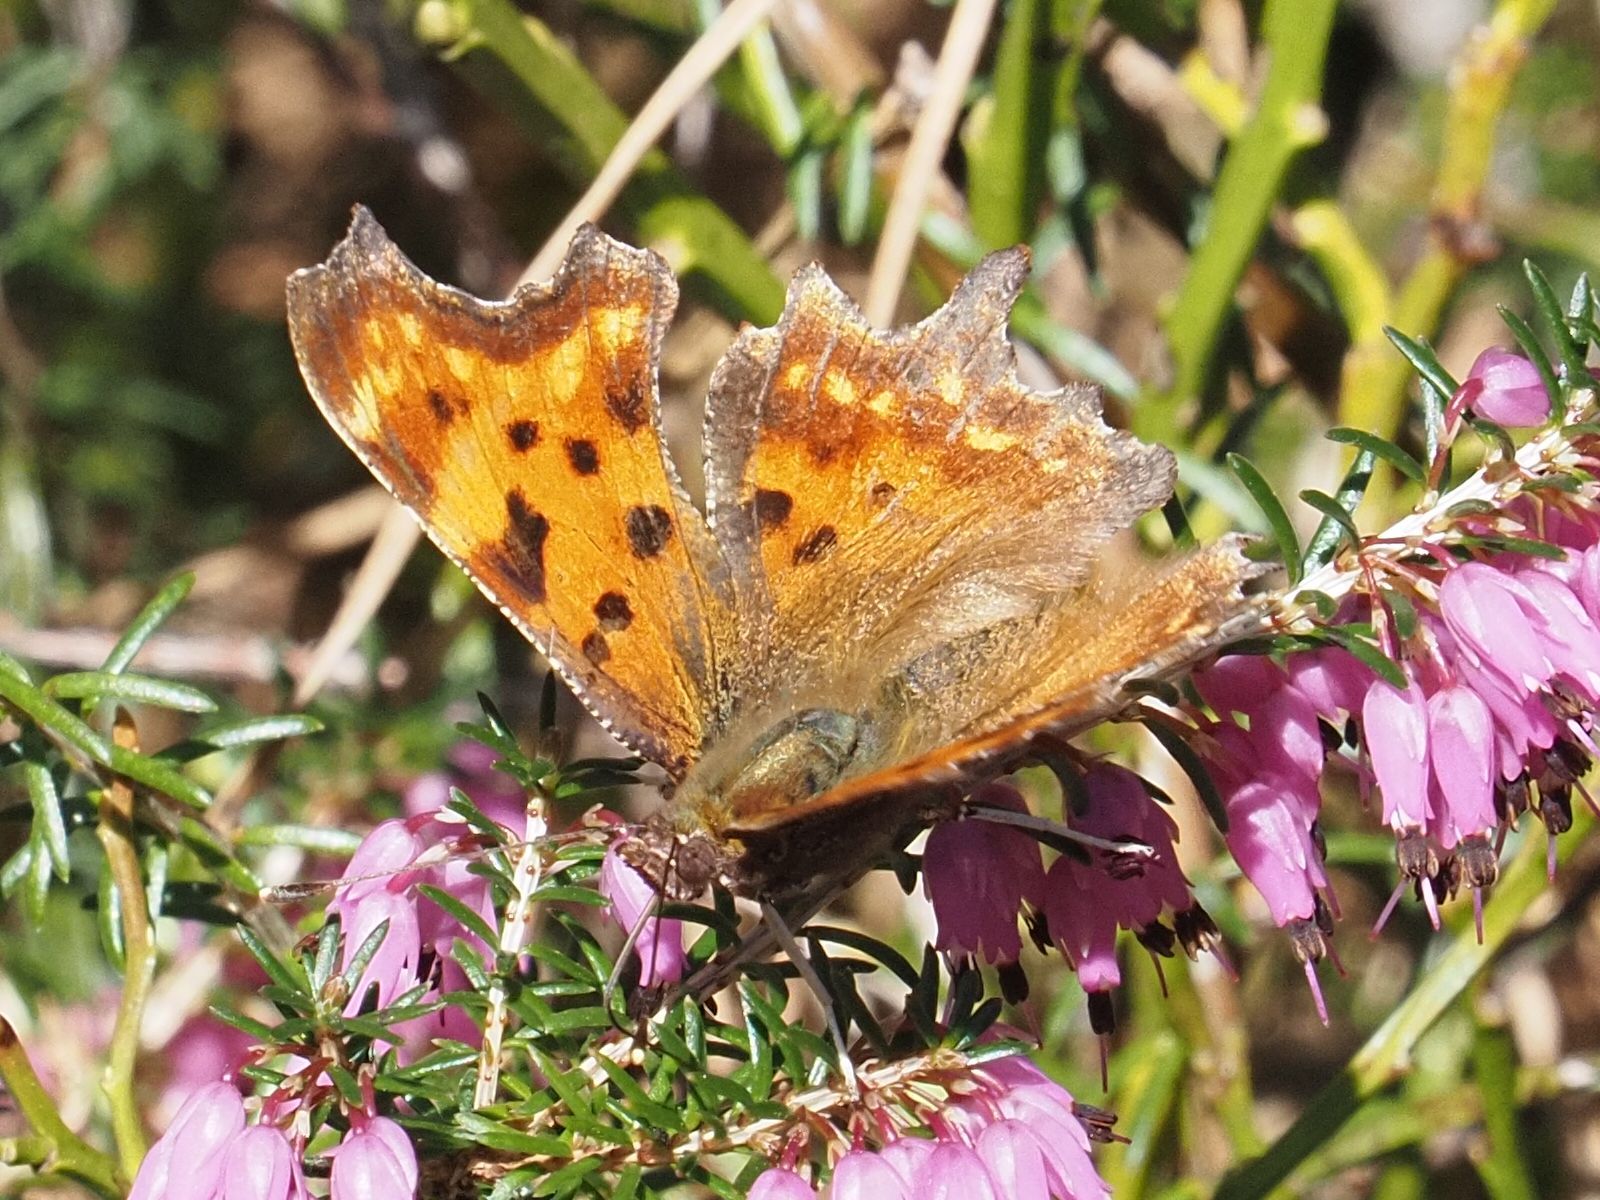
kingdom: Animalia
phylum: Arthropoda
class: Insecta
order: Lepidoptera
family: Nymphalidae
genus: Polygonia
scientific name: Polygonia c-album
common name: Comma
